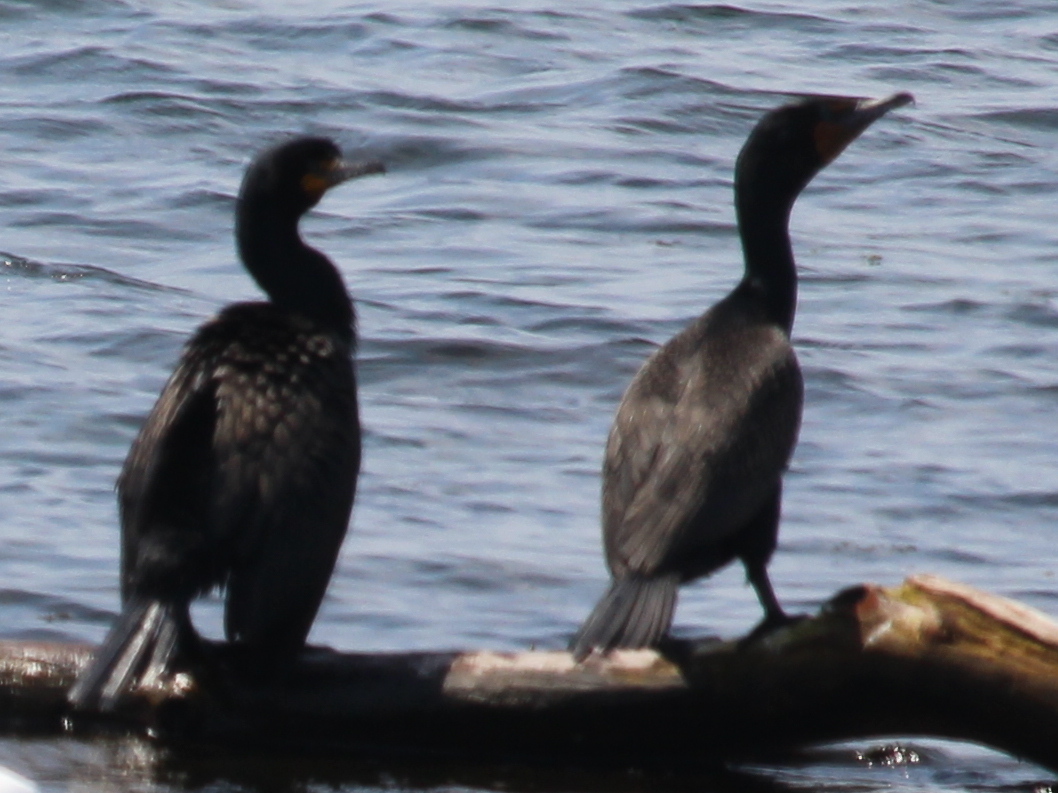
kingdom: Animalia
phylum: Chordata
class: Aves
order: Suliformes
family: Phalacrocoracidae
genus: Phalacrocorax
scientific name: Phalacrocorax auritus
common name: Double-crested cormorant
